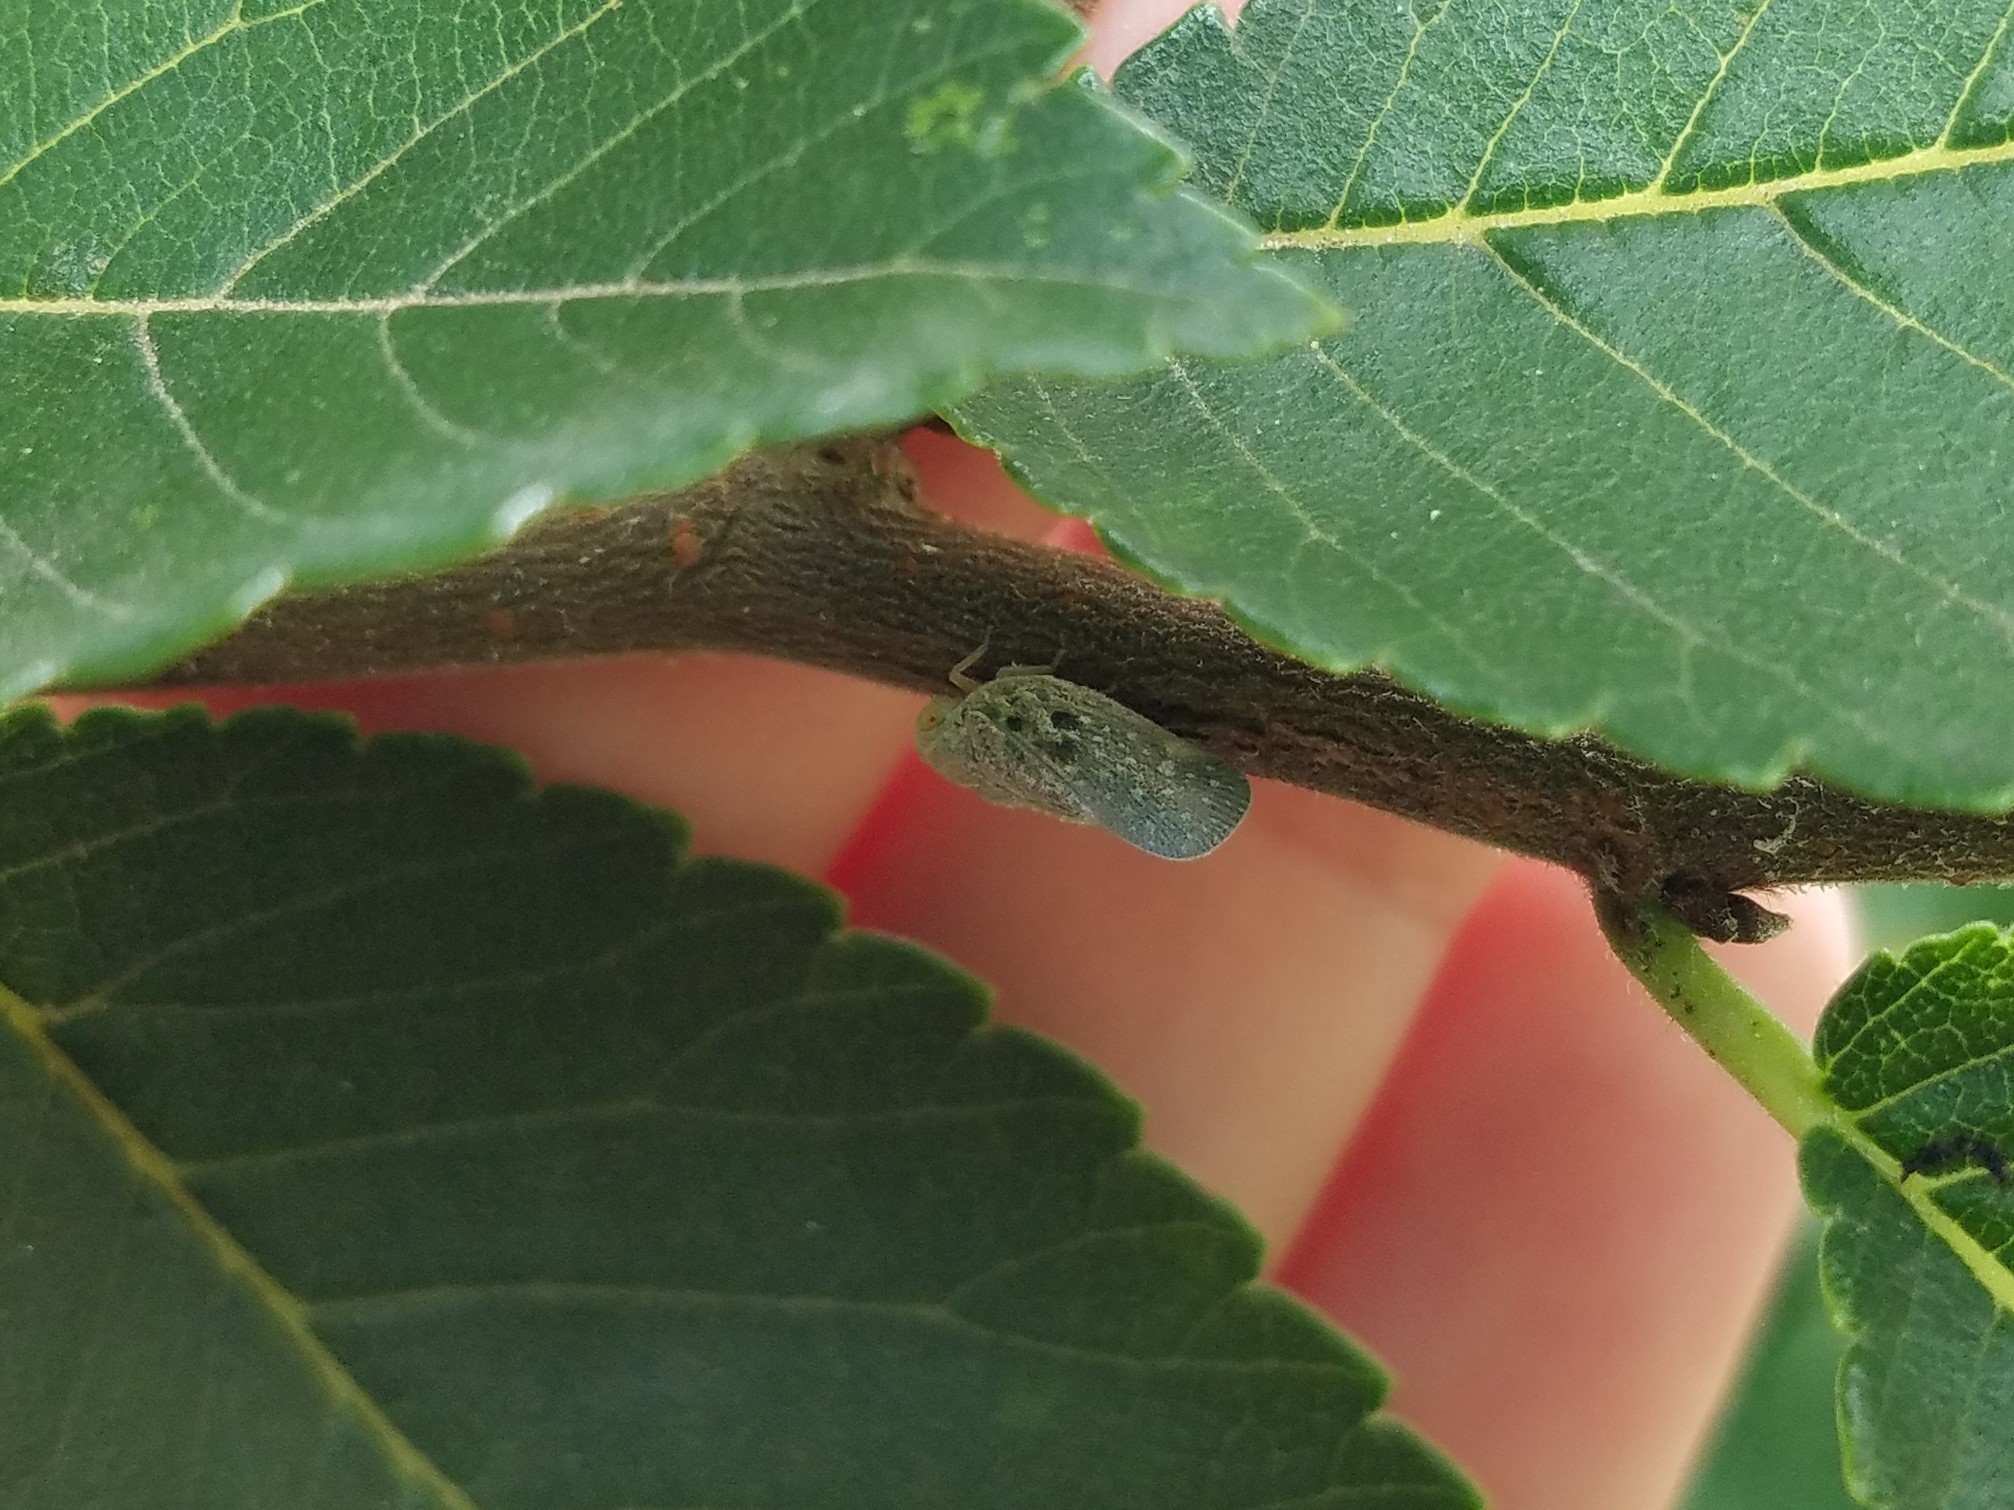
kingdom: Animalia
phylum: Arthropoda
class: Insecta
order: Hemiptera
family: Flatidae
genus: Metcalfa
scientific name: Metcalfa pruinosa
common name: Citrus flatid planthopper
